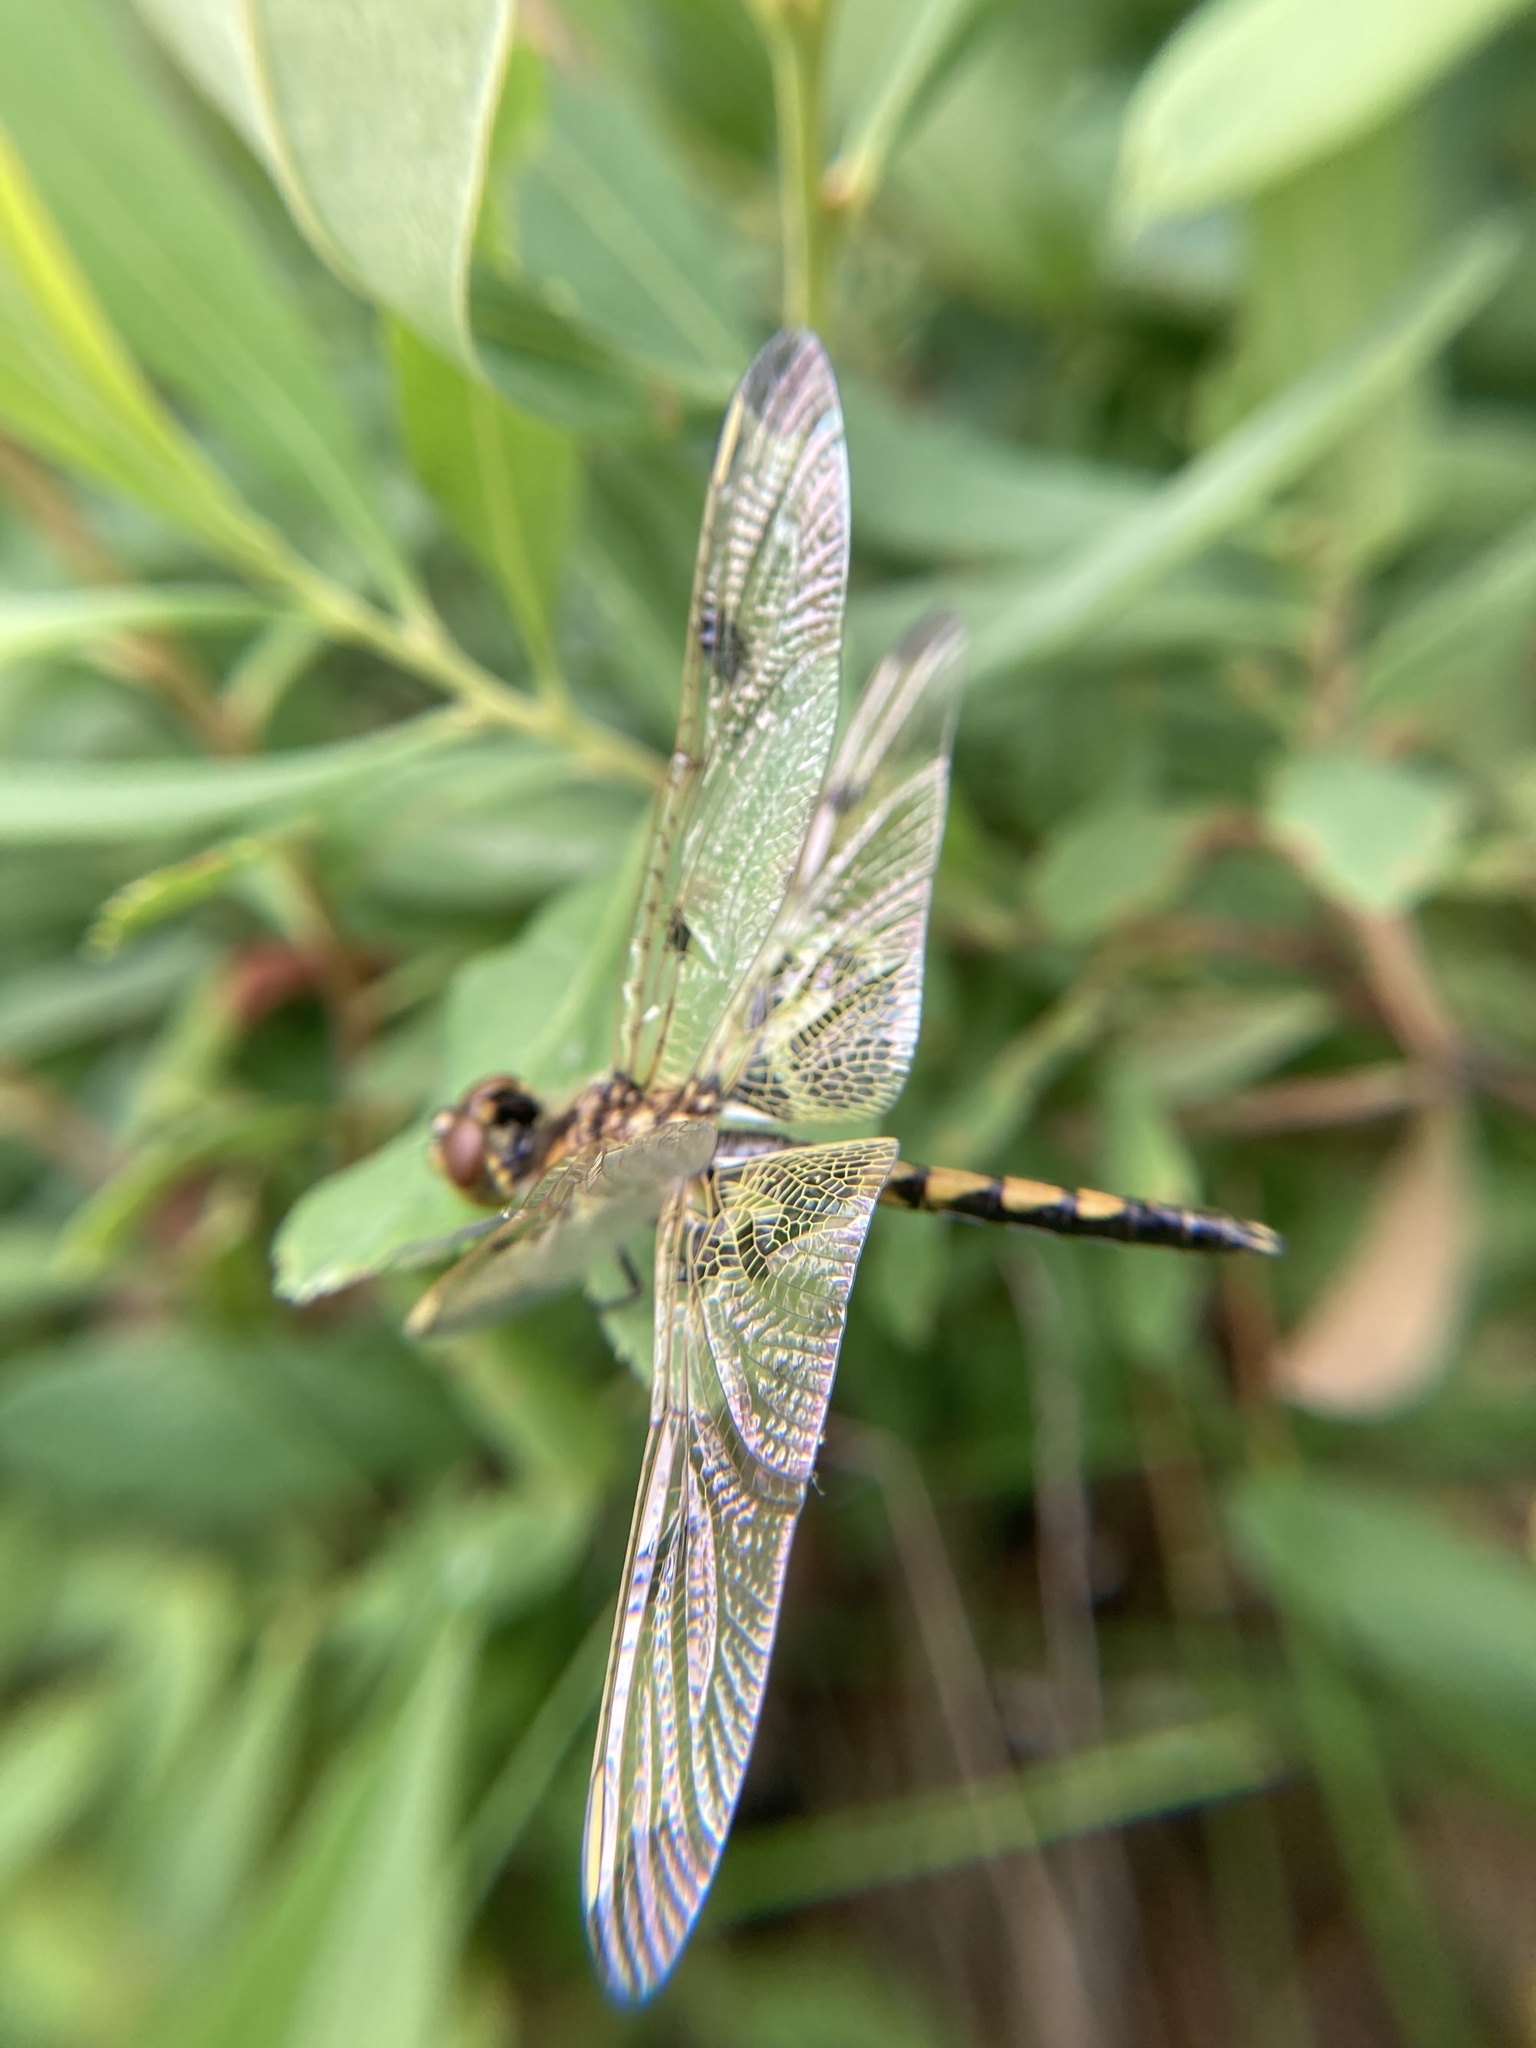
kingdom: Animalia
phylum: Arthropoda
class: Insecta
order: Odonata
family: Libellulidae
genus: Celithemis
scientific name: Celithemis elisa
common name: Calico pennant
